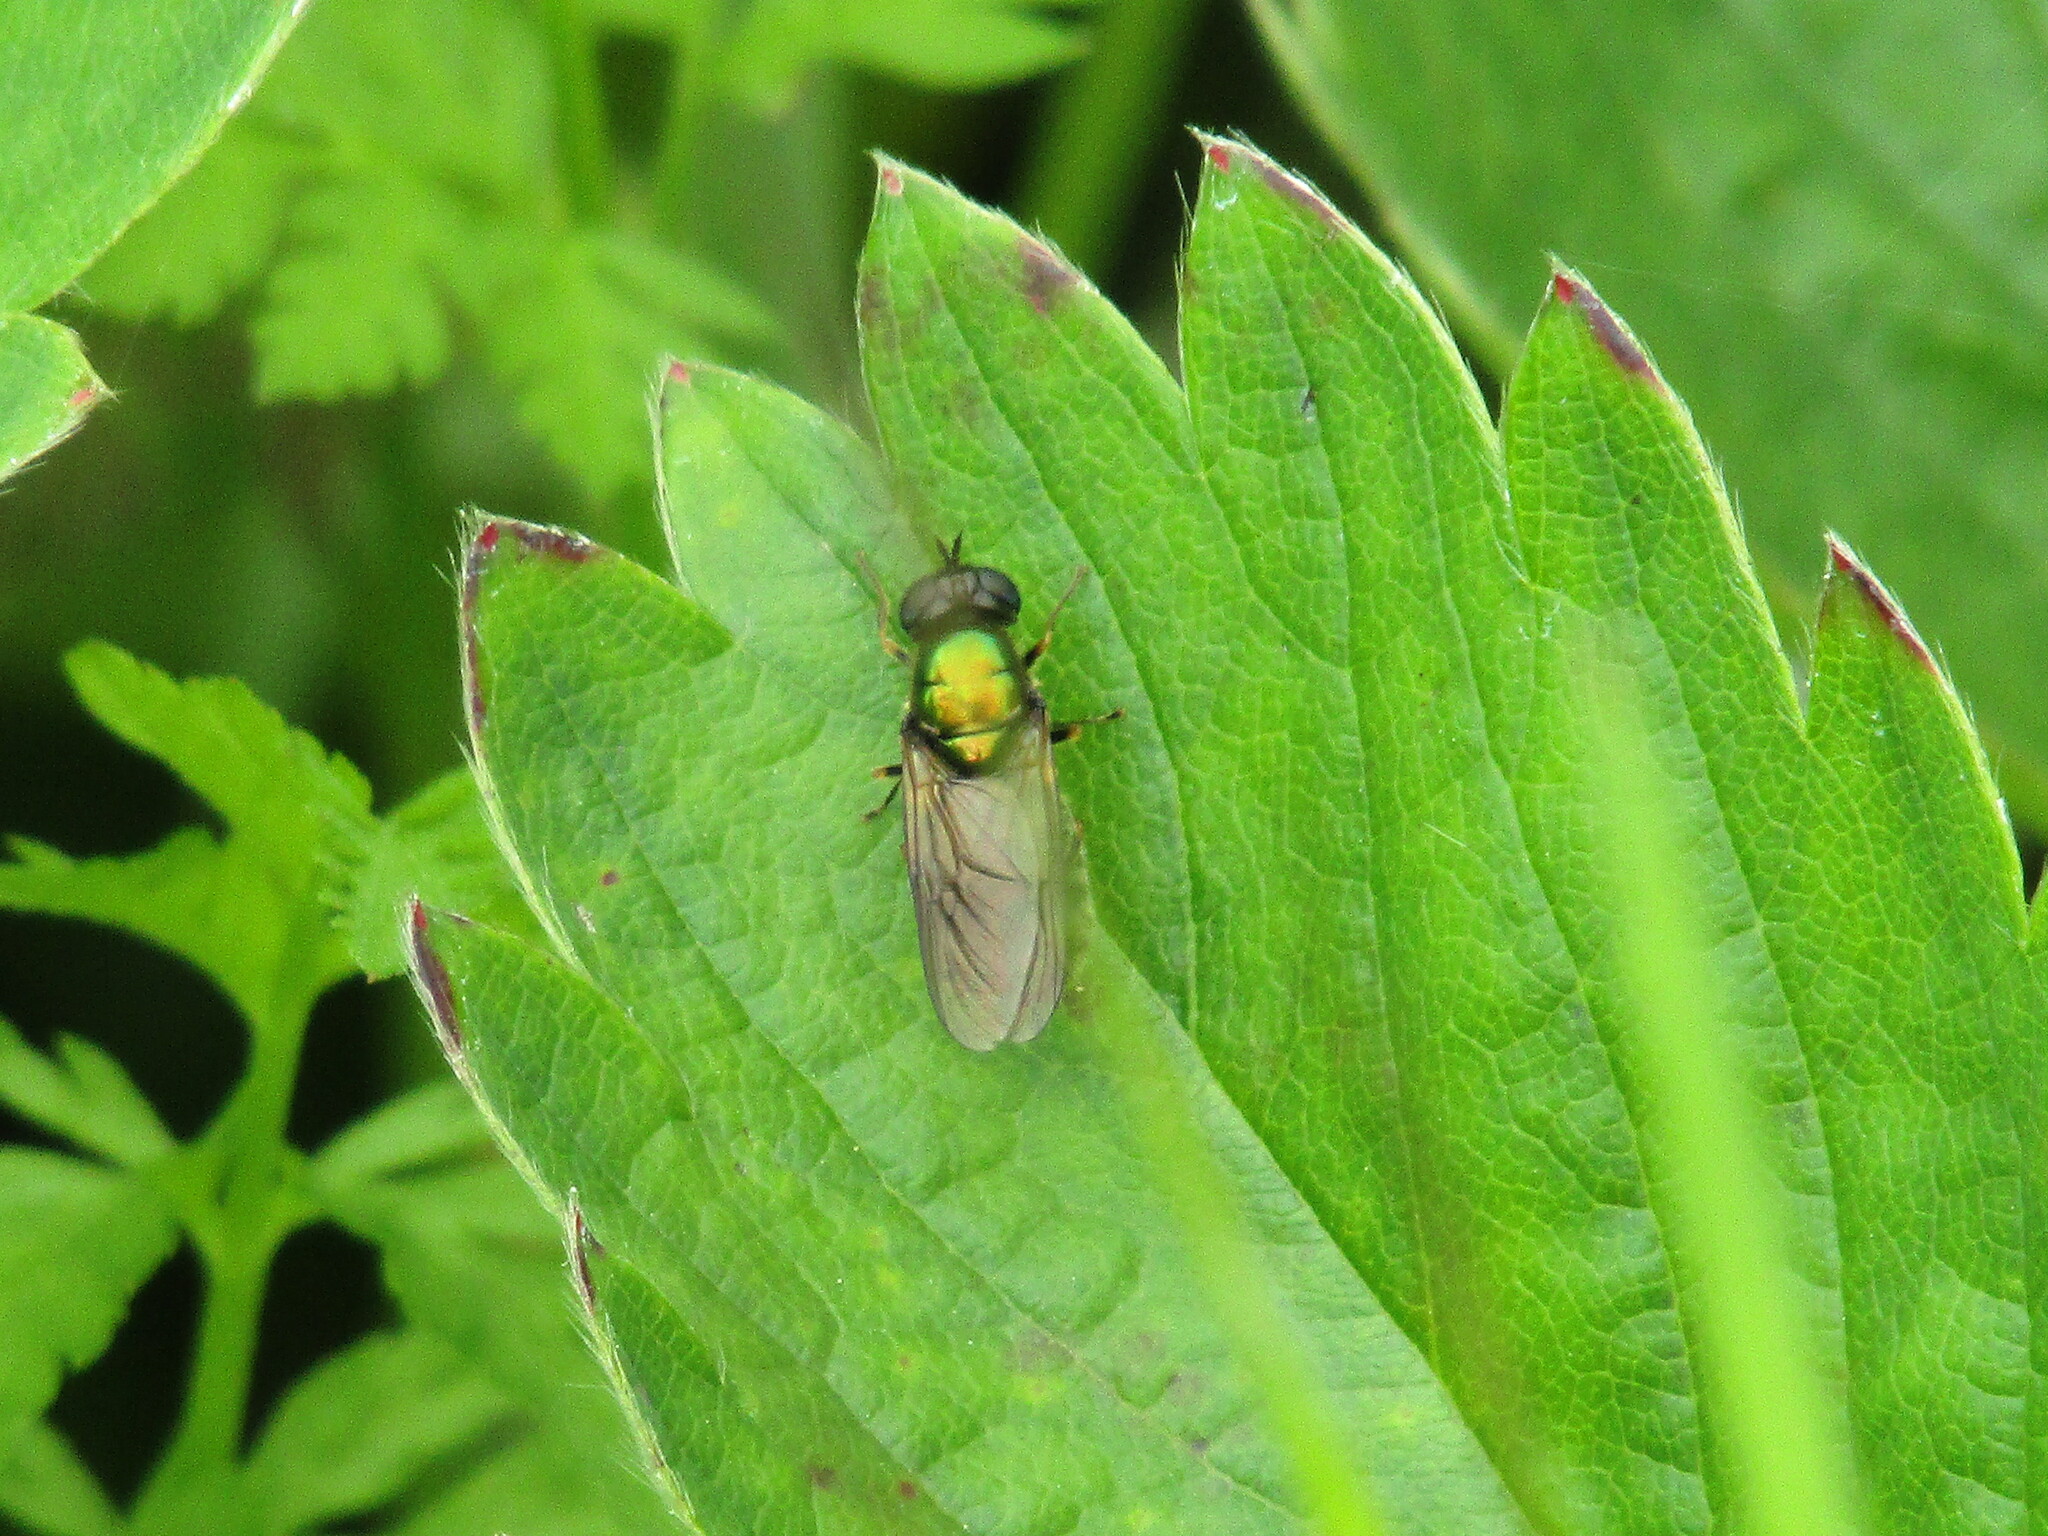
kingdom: Animalia
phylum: Arthropoda
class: Insecta
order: Diptera
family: Stratiomyidae
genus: Chloromyia
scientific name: Chloromyia formosa
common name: Soldier fly
